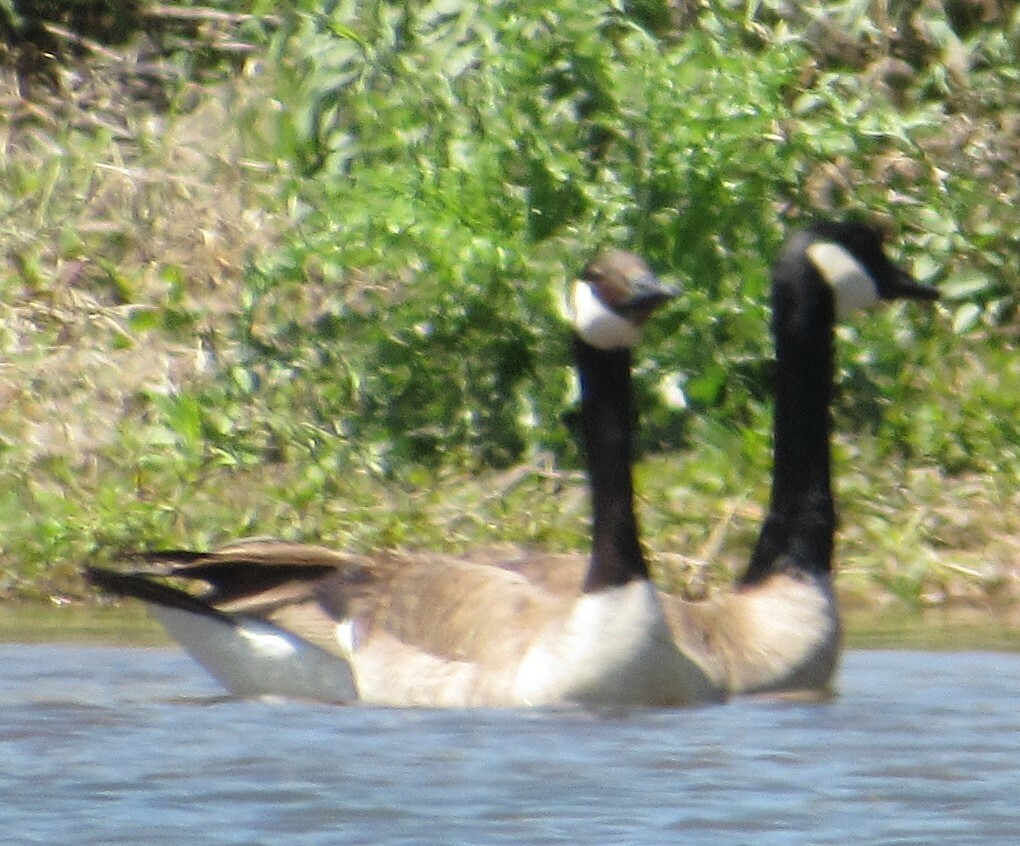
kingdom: Animalia
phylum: Chordata
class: Aves
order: Anseriformes
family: Anatidae
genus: Branta
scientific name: Branta canadensis
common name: Canada goose
